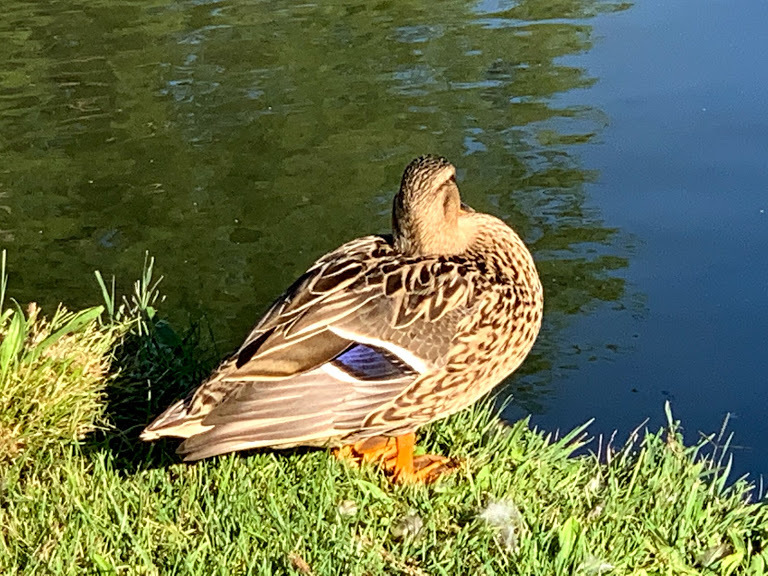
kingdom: Animalia
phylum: Chordata
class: Aves
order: Anseriformes
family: Anatidae
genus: Anas
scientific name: Anas platyrhynchos
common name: Mallard
